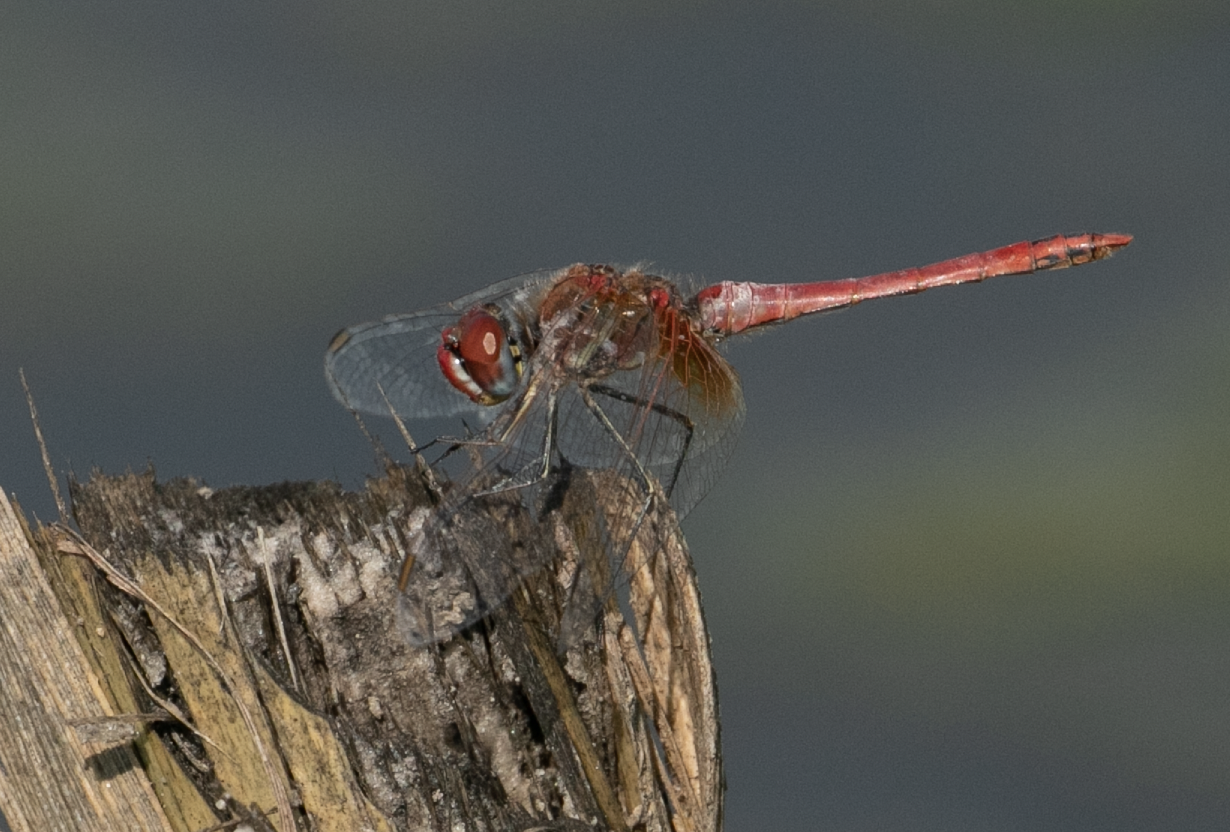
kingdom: Animalia
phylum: Arthropoda
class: Insecta
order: Odonata
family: Libellulidae
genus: Sympetrum
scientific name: Sympetrum fonscolombii
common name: Red-veined darter
